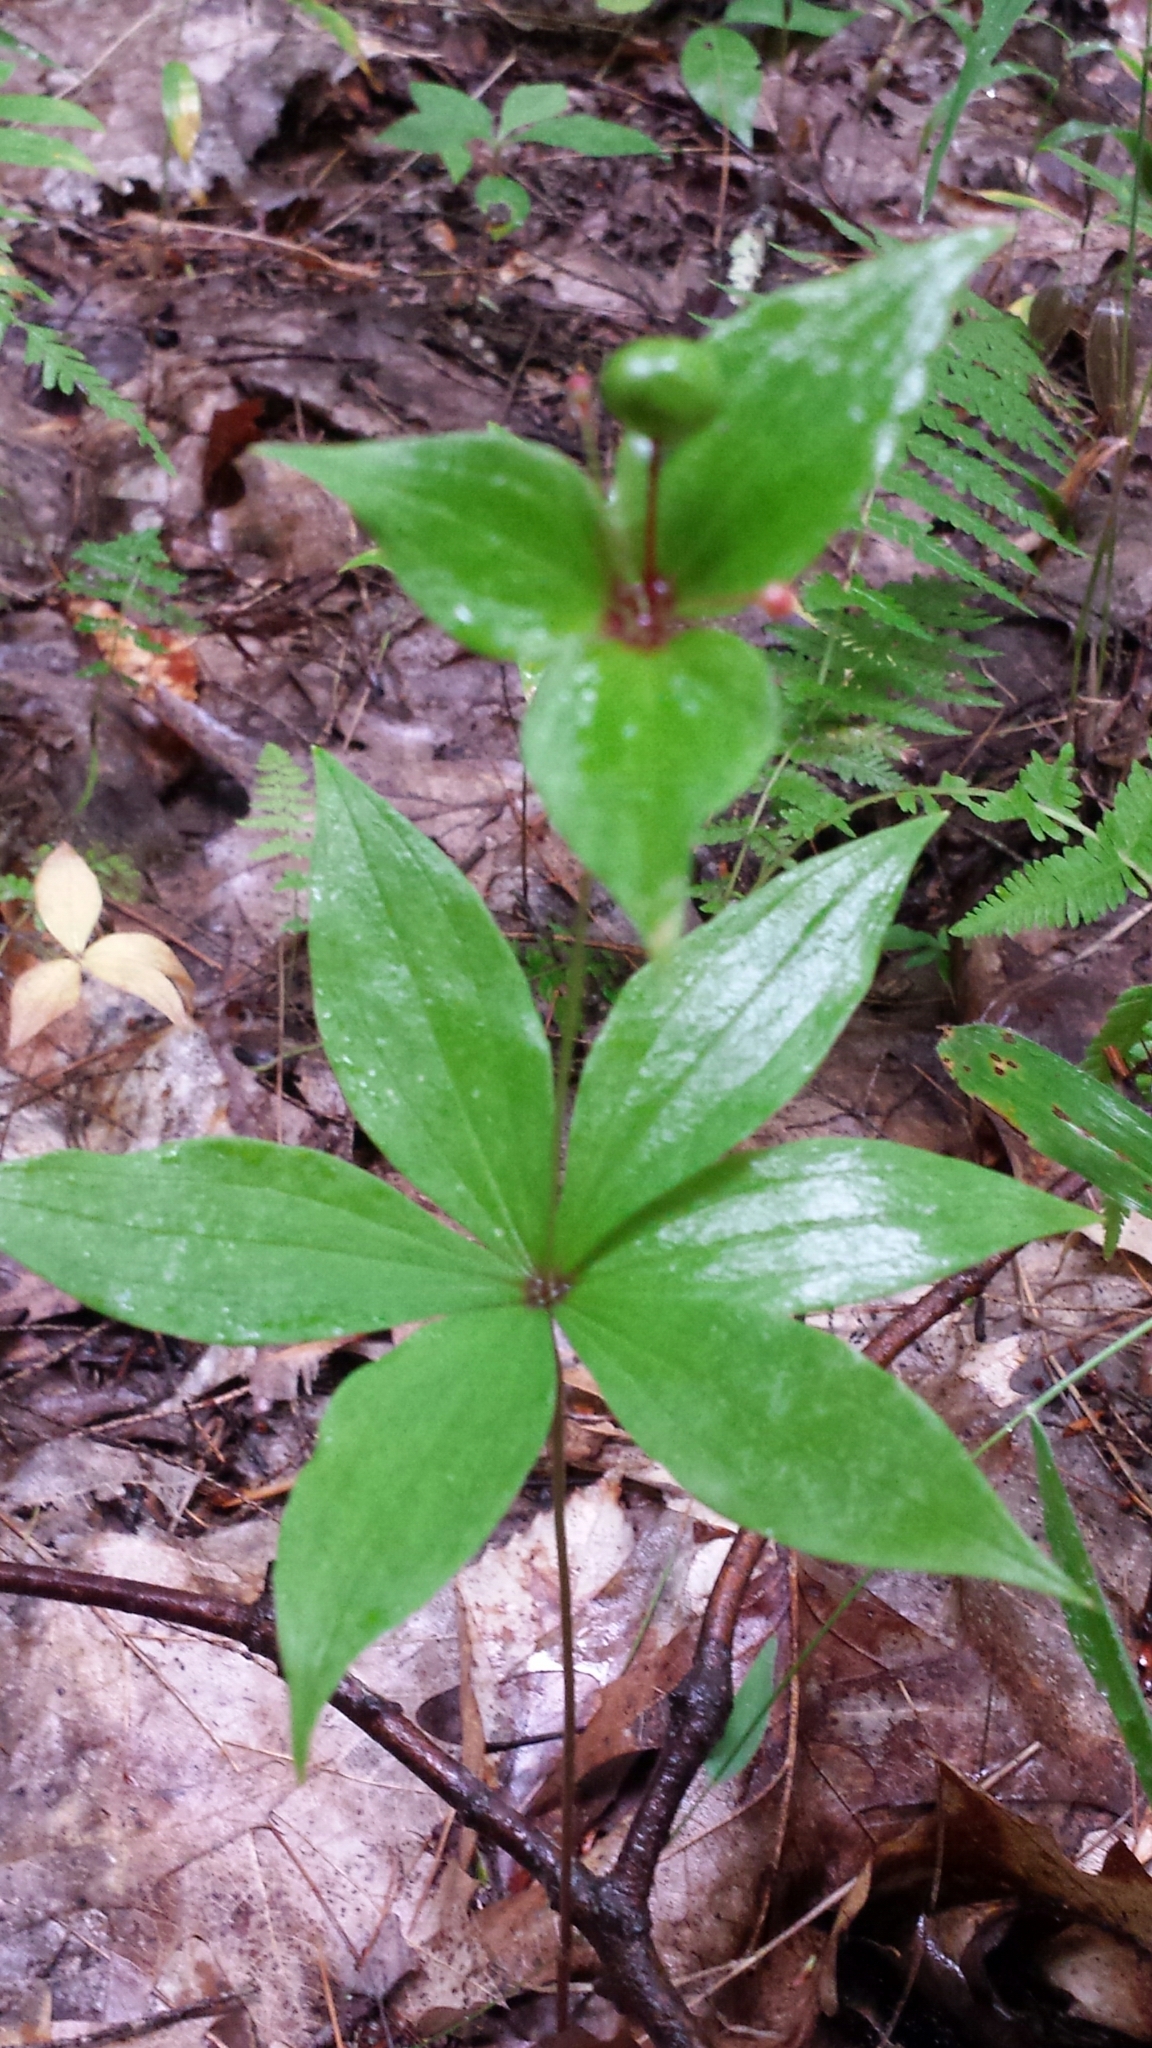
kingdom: Plantae
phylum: Tracheophyta
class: Liliopsida
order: Liliales
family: Liliaceae
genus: Medeola
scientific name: Medeola virginiana
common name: Indian cucumber-root
